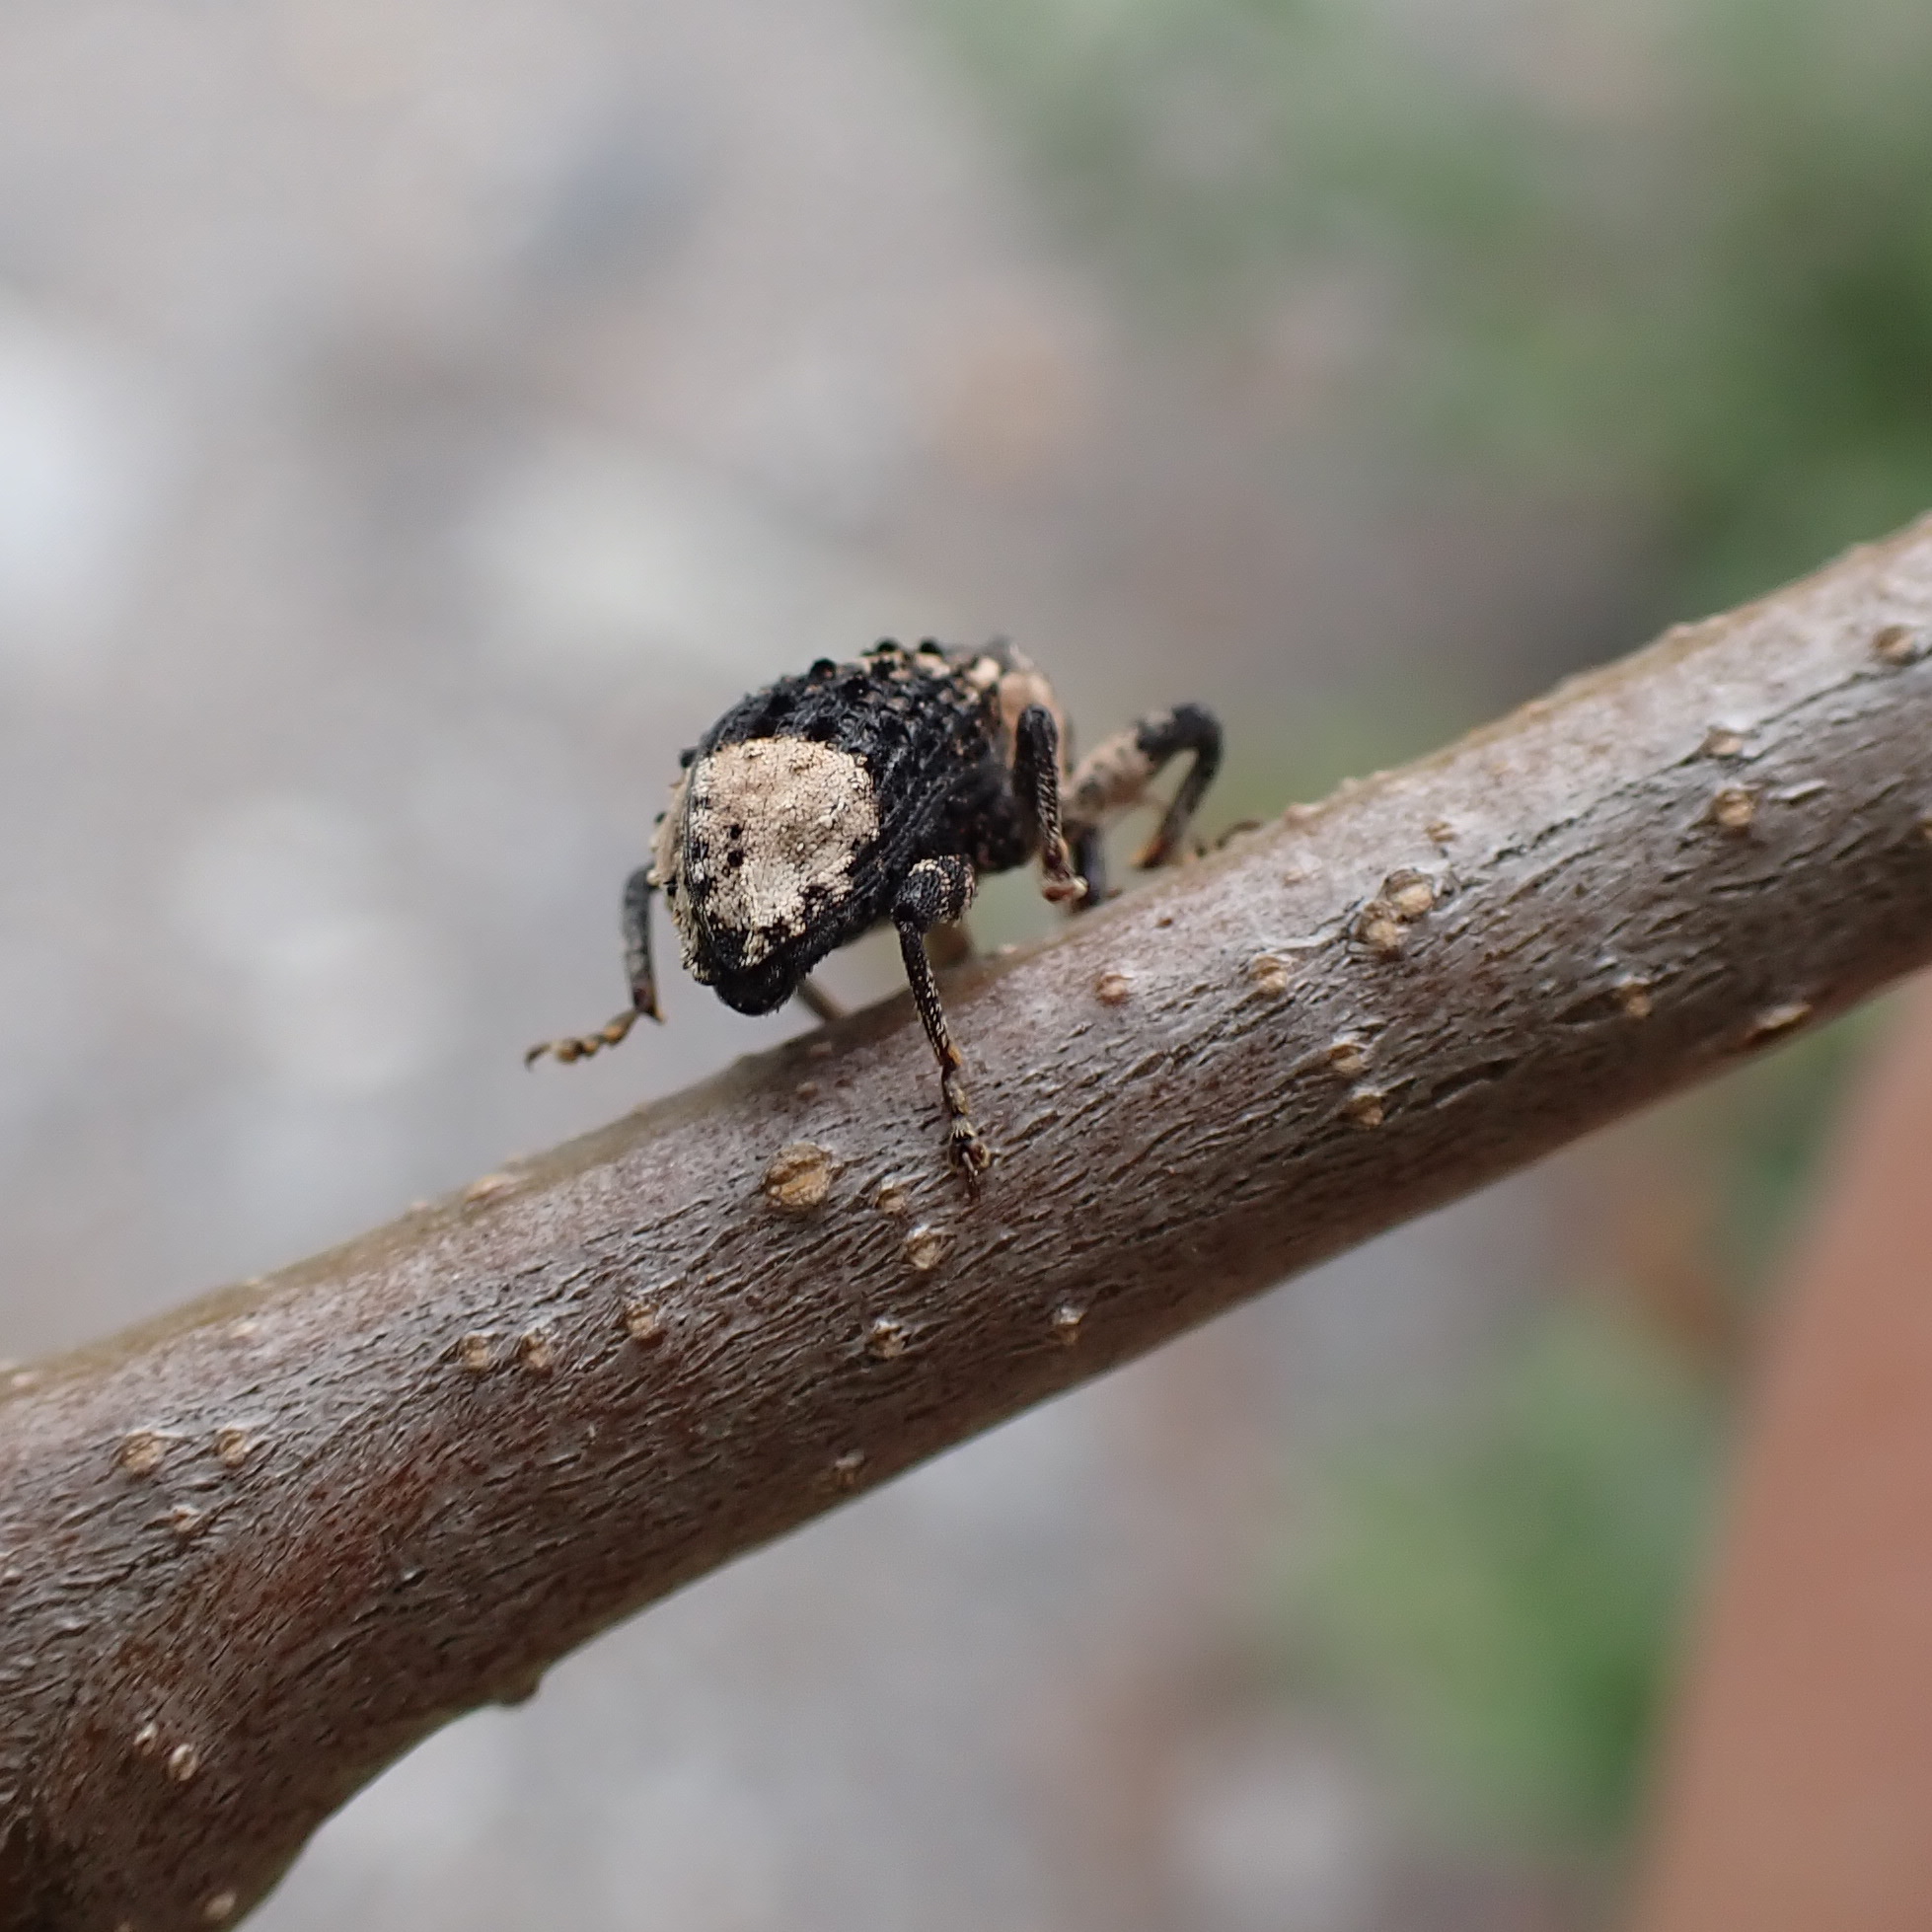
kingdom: Animalia
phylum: Arthropoda
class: Insecta
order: Coleoptera
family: Curculionidae
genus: Cryptorhynchus
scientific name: Cryptorhynchus lapathi
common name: Weevil
